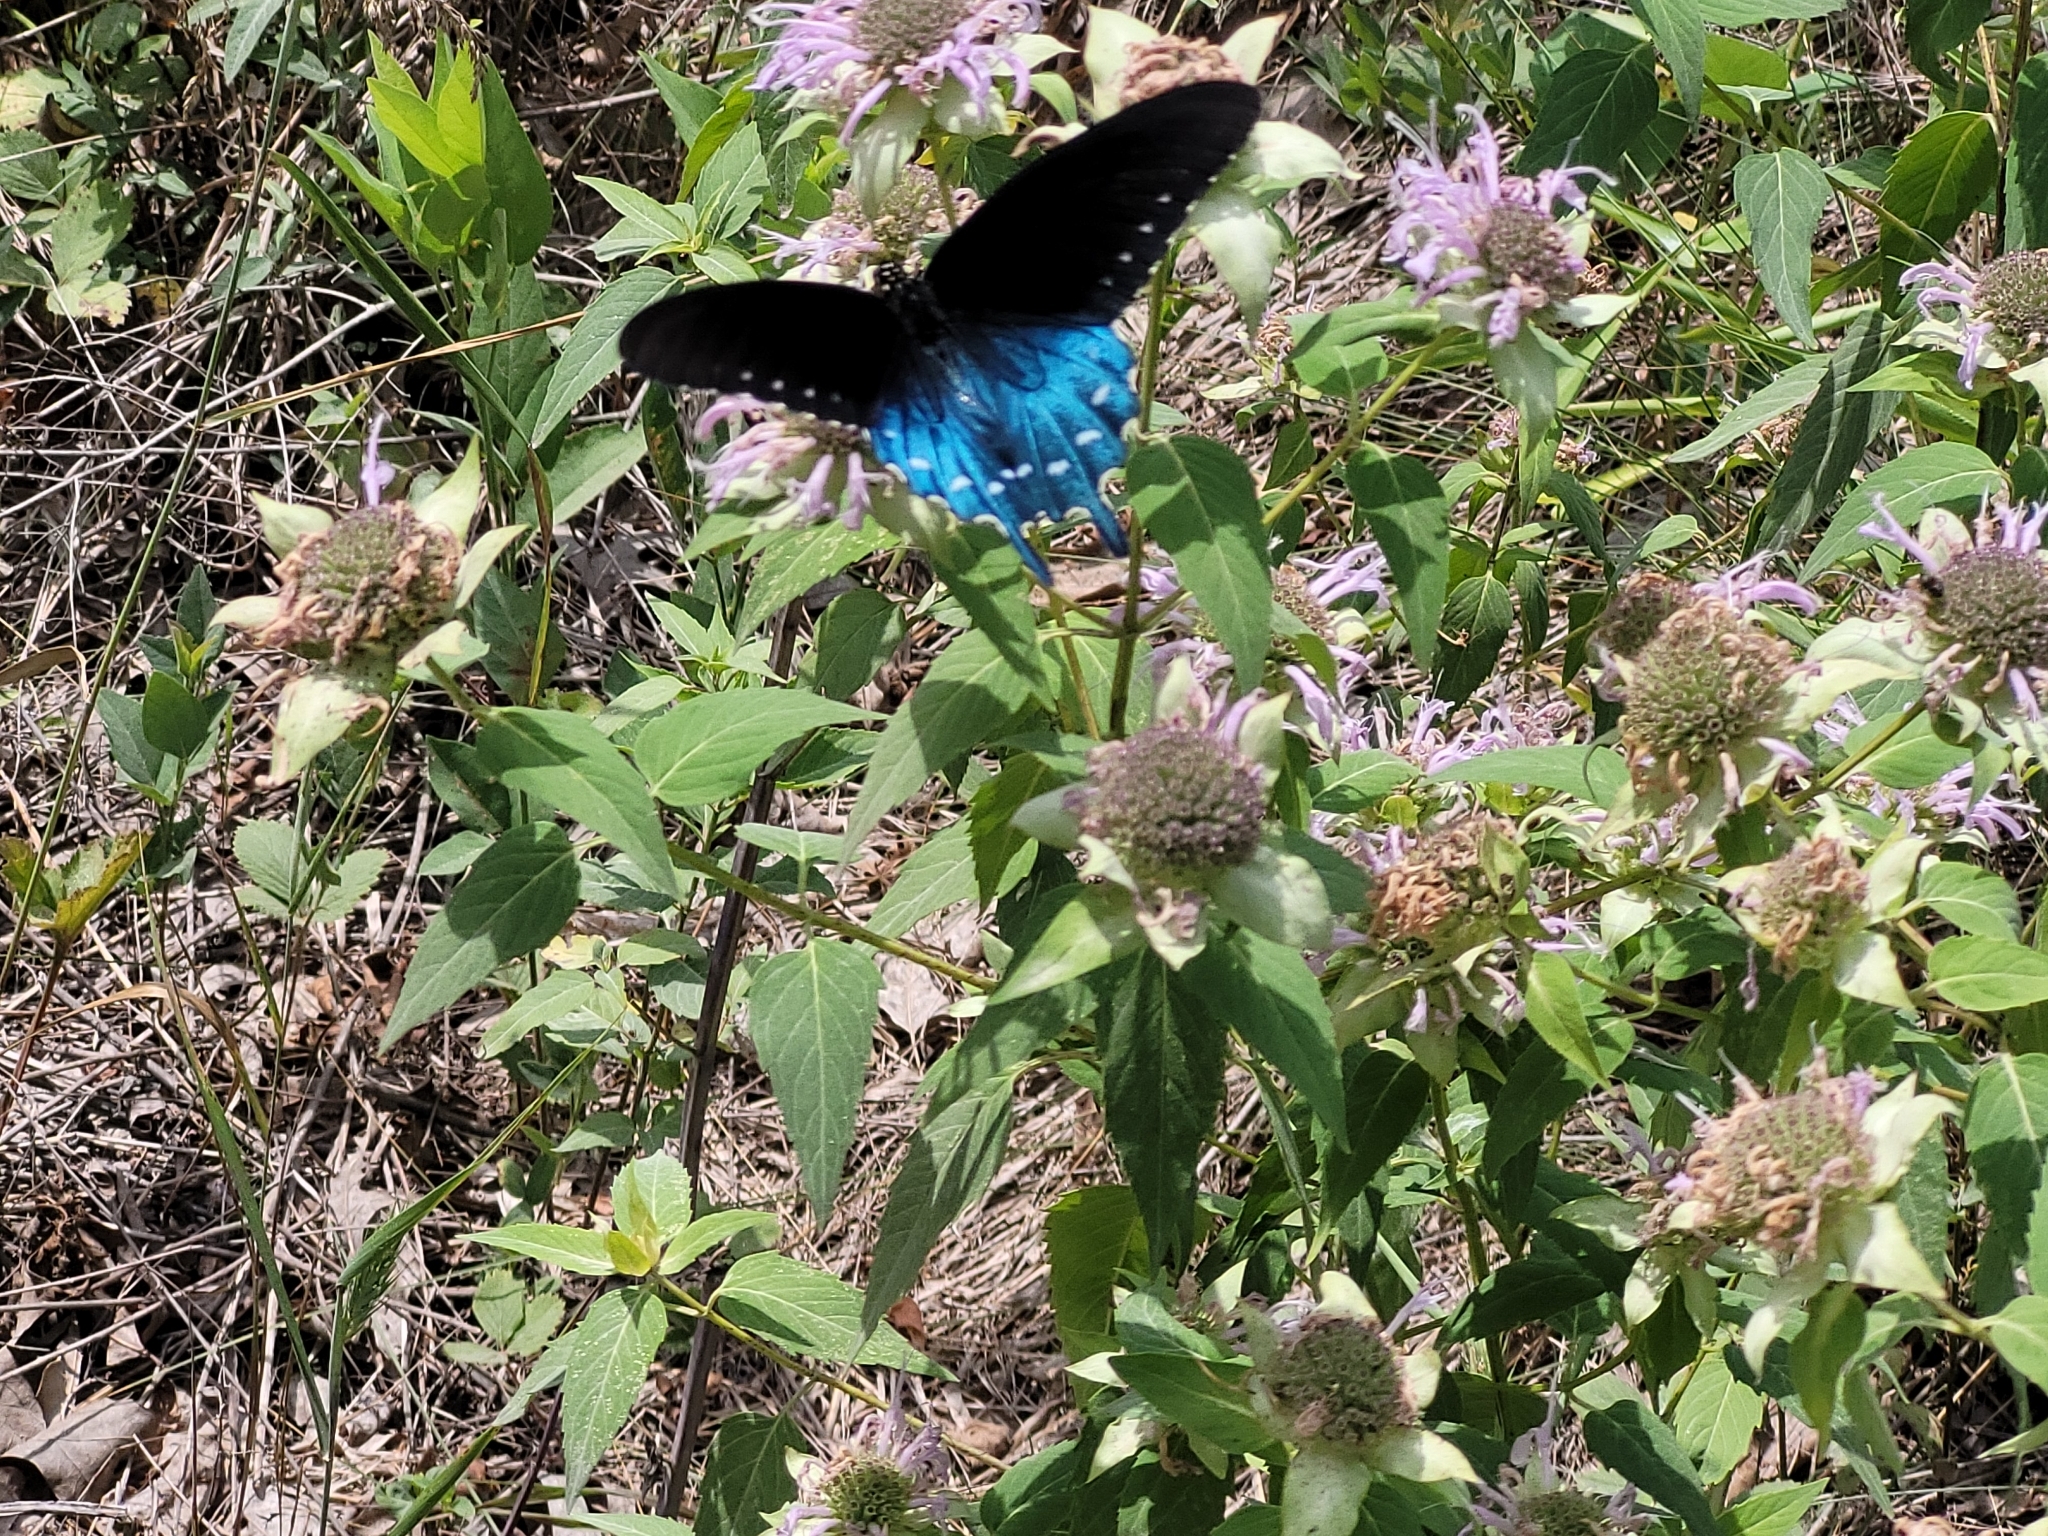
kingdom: Animalia
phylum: Arthropoda
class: Insecta
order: Lepidoptera
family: Papilionidae
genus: Battus
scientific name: Battus philenor
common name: Pipevine swallowtail
